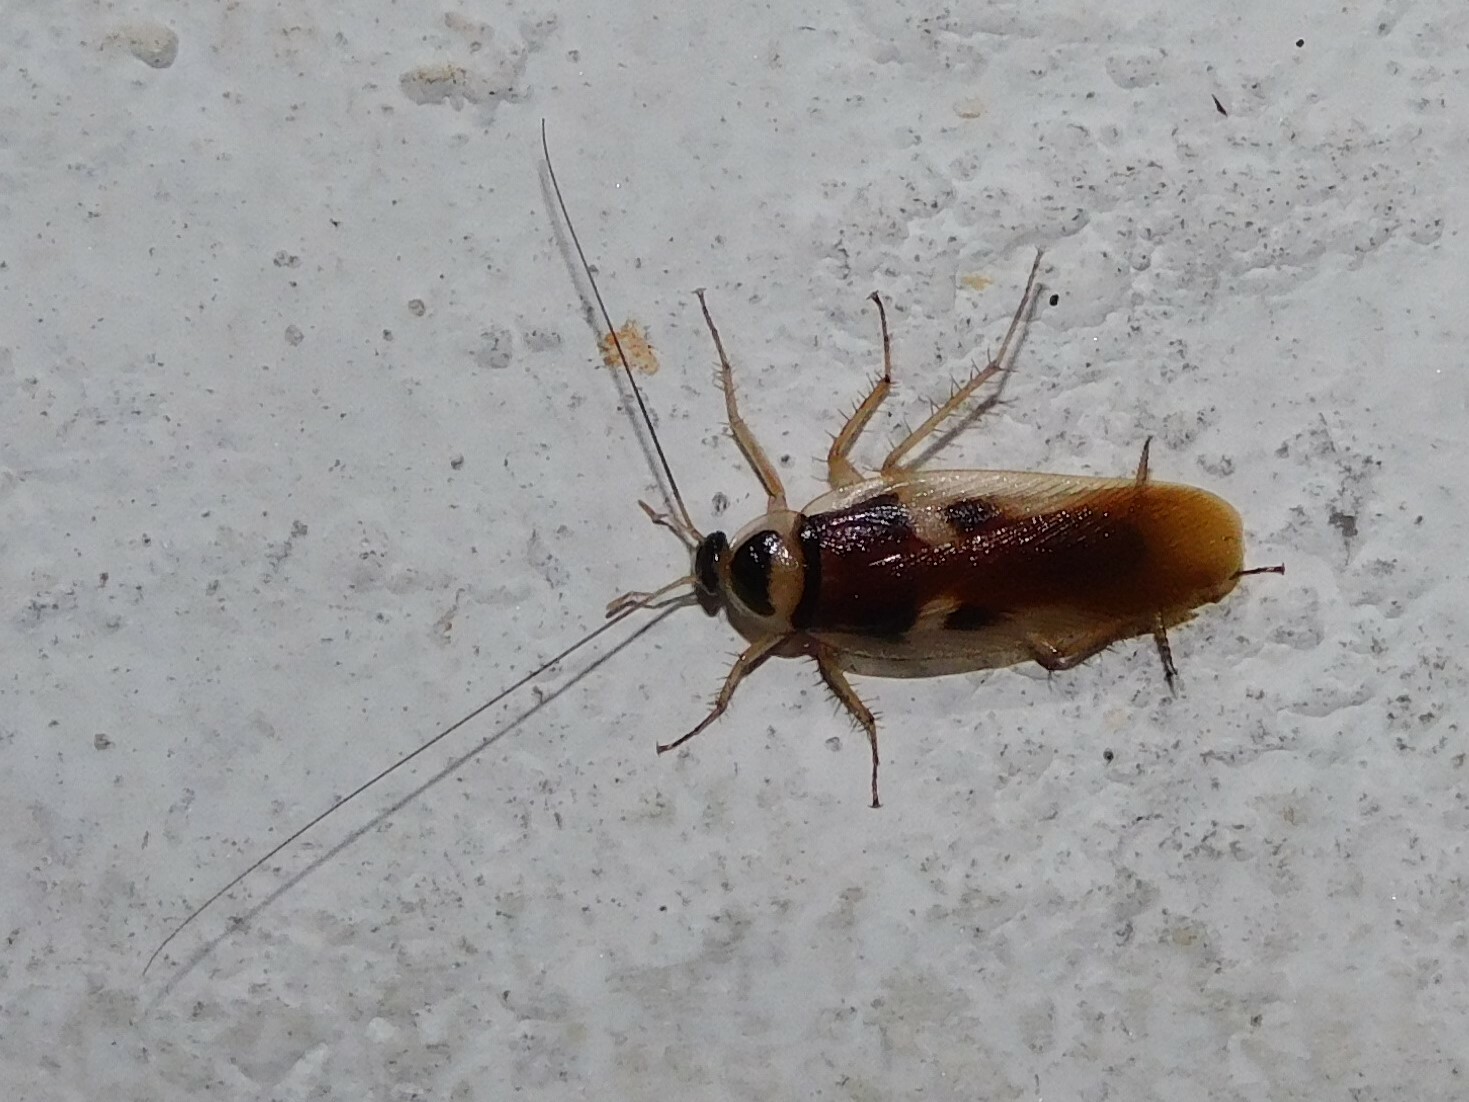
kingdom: Animalia
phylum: Arthropoda
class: Insecta
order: Blattodea
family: Ectobiidae
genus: Supella
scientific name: Supella dimidiata
